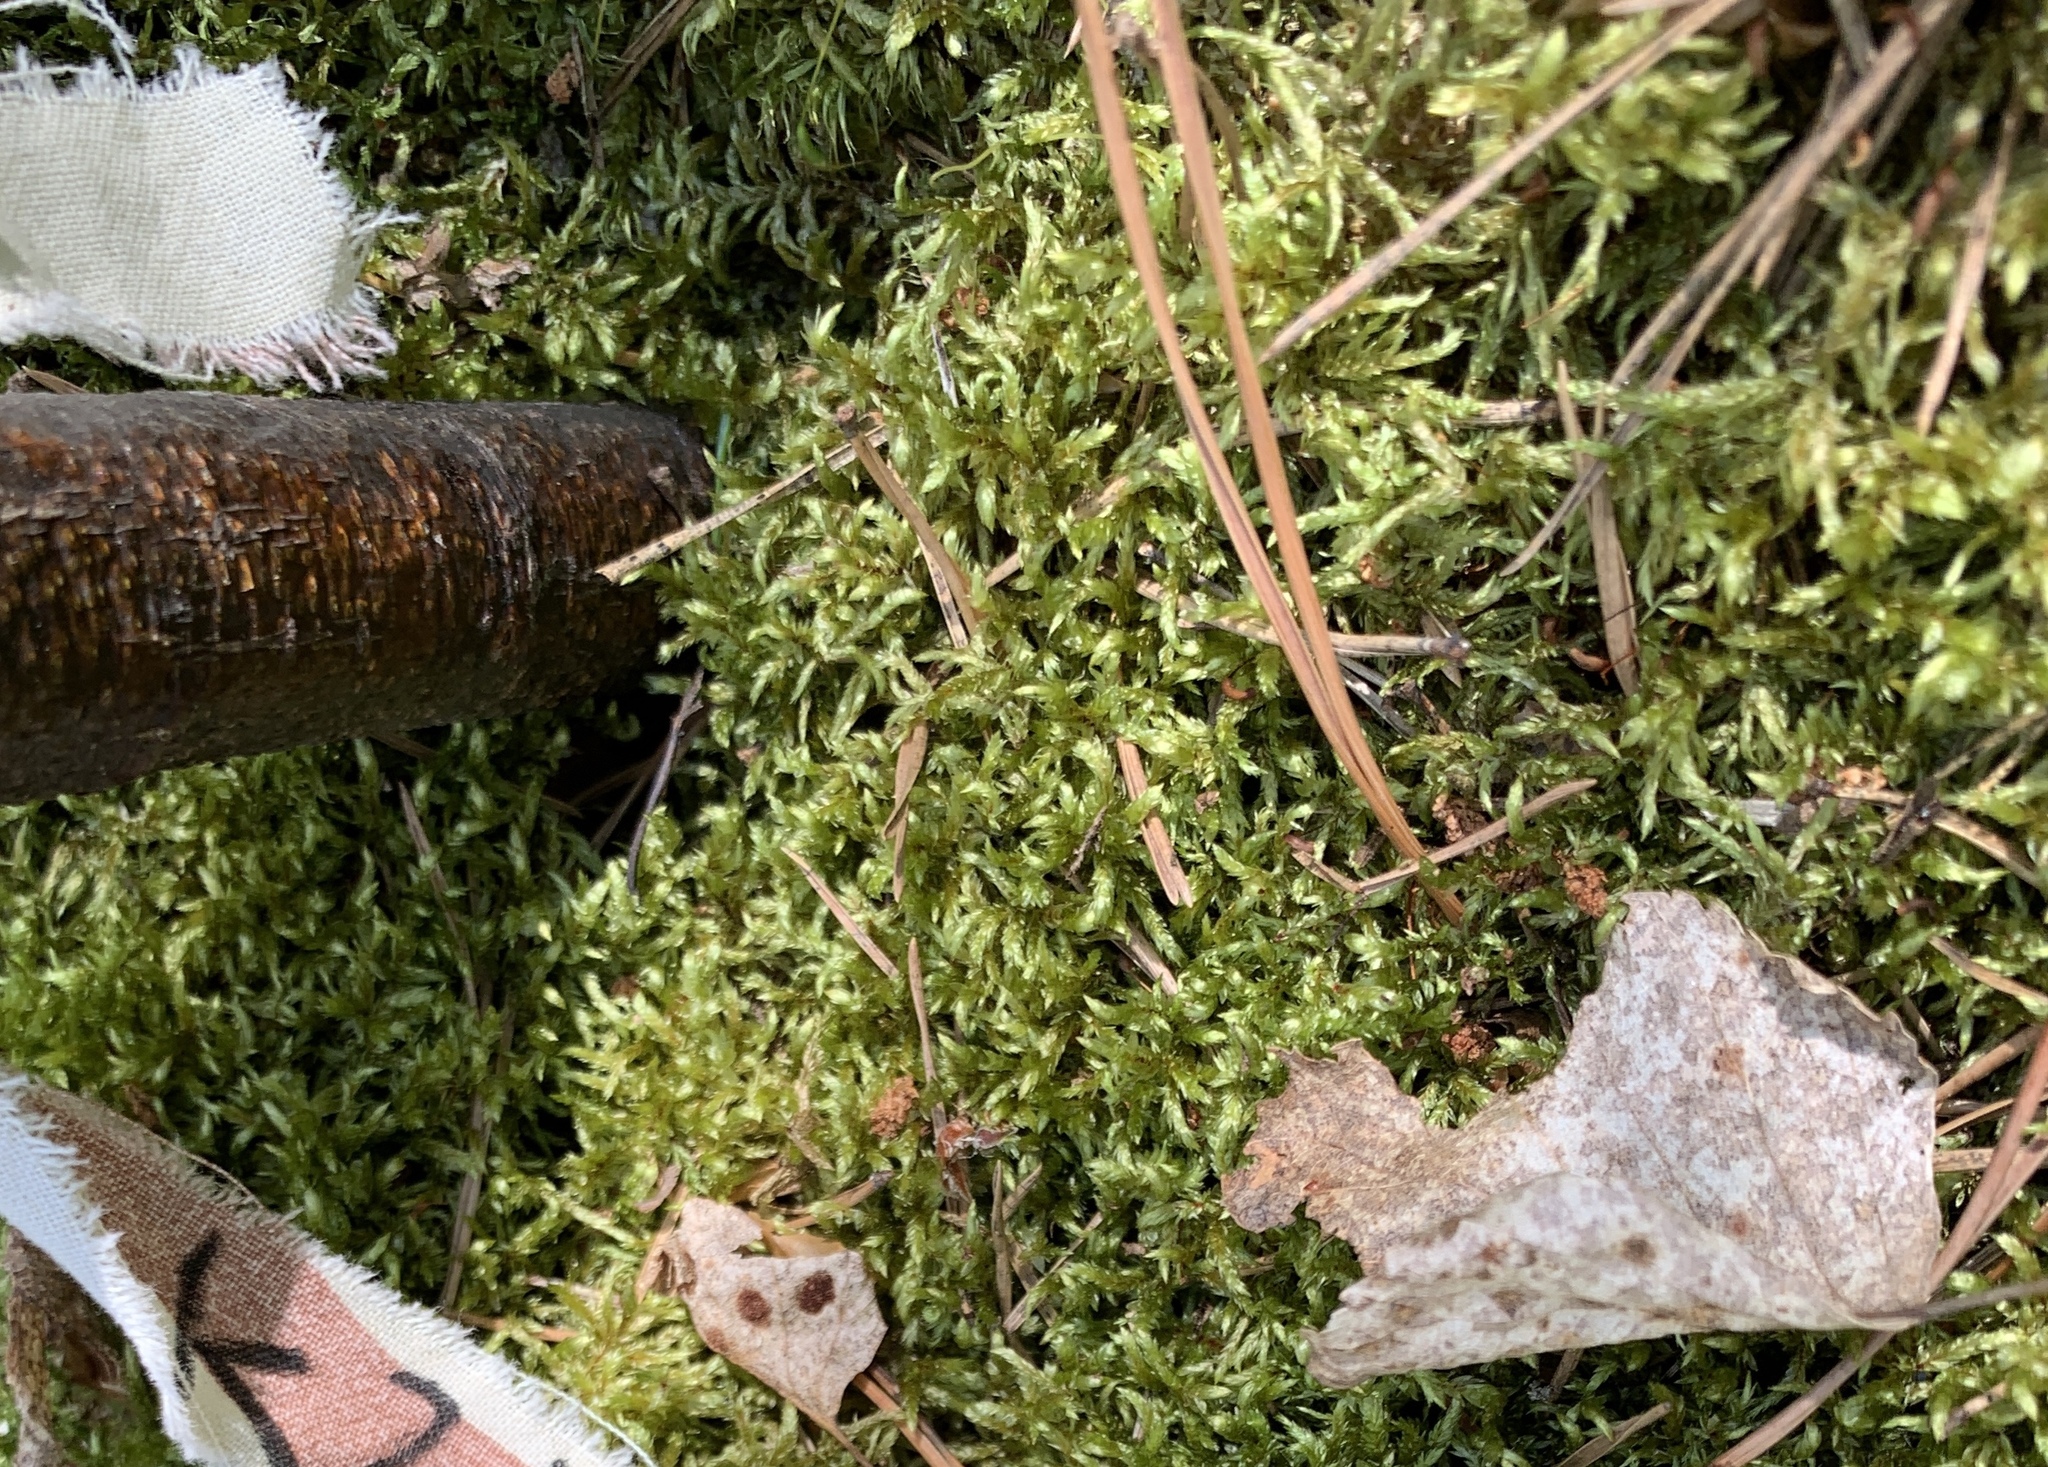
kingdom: Plantae
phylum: Bryophyta
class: Bryopsida
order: Hypnales
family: Hylocomiaceae
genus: Pleurozium
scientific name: Pleurozium schreberi
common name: Red-stemmed feather moss
